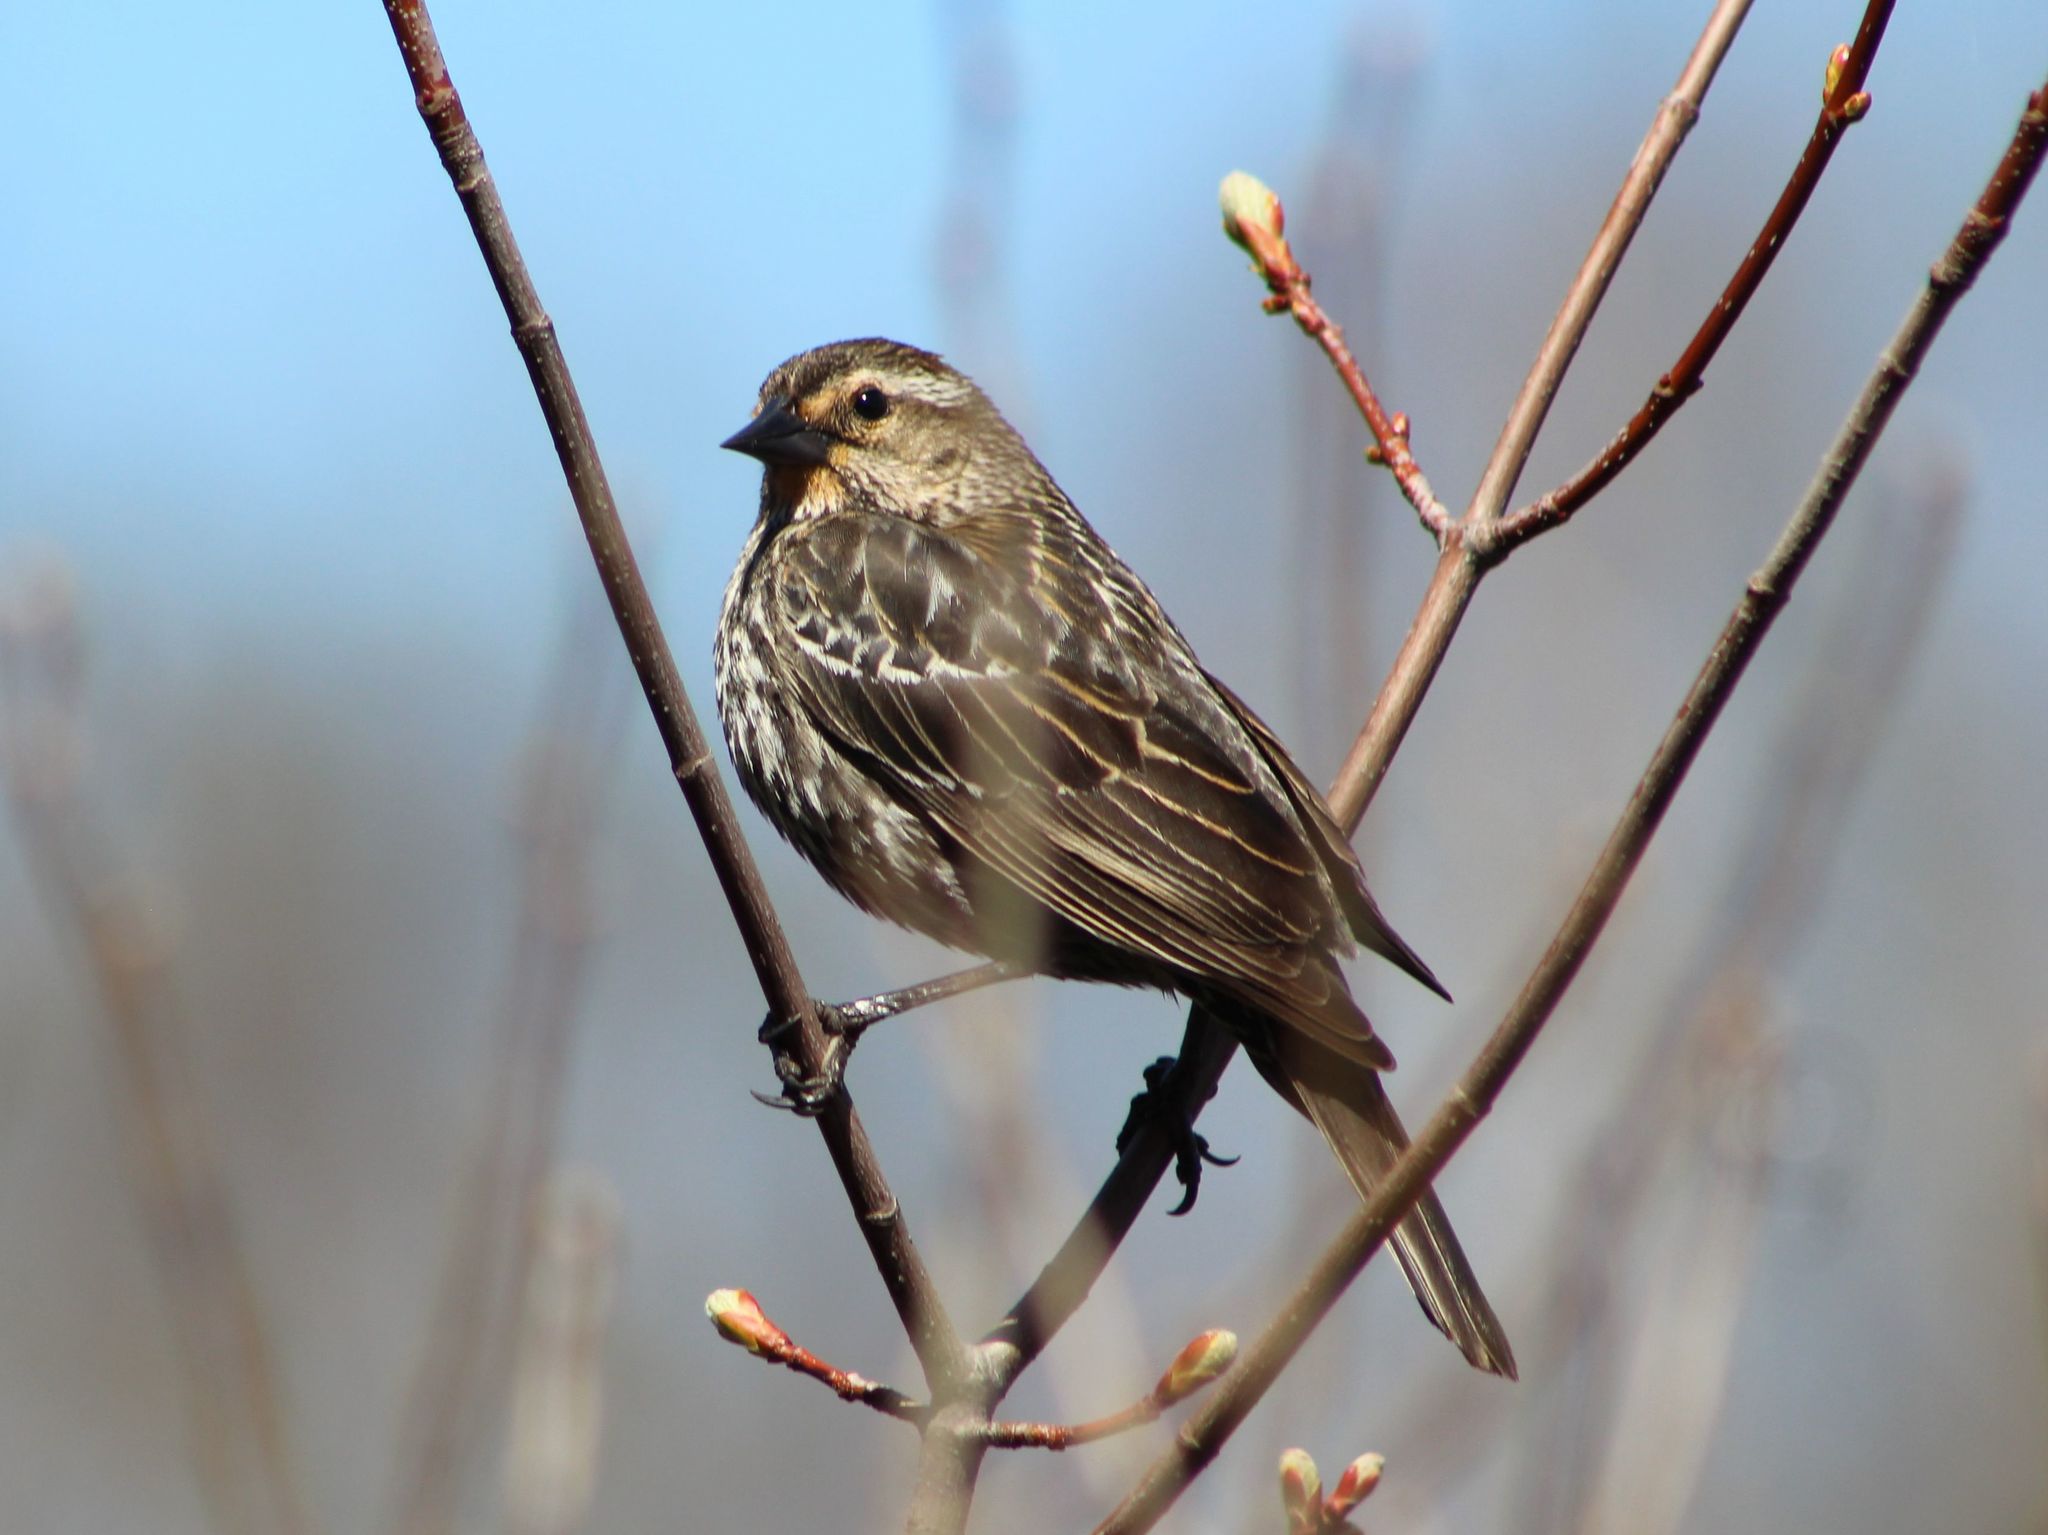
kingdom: Animalia
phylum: Chordata
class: Aves
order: Passeriformes
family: Icteridae
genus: Agelaius
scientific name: Agelaius phoeniceus
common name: Red-winged blackbird
